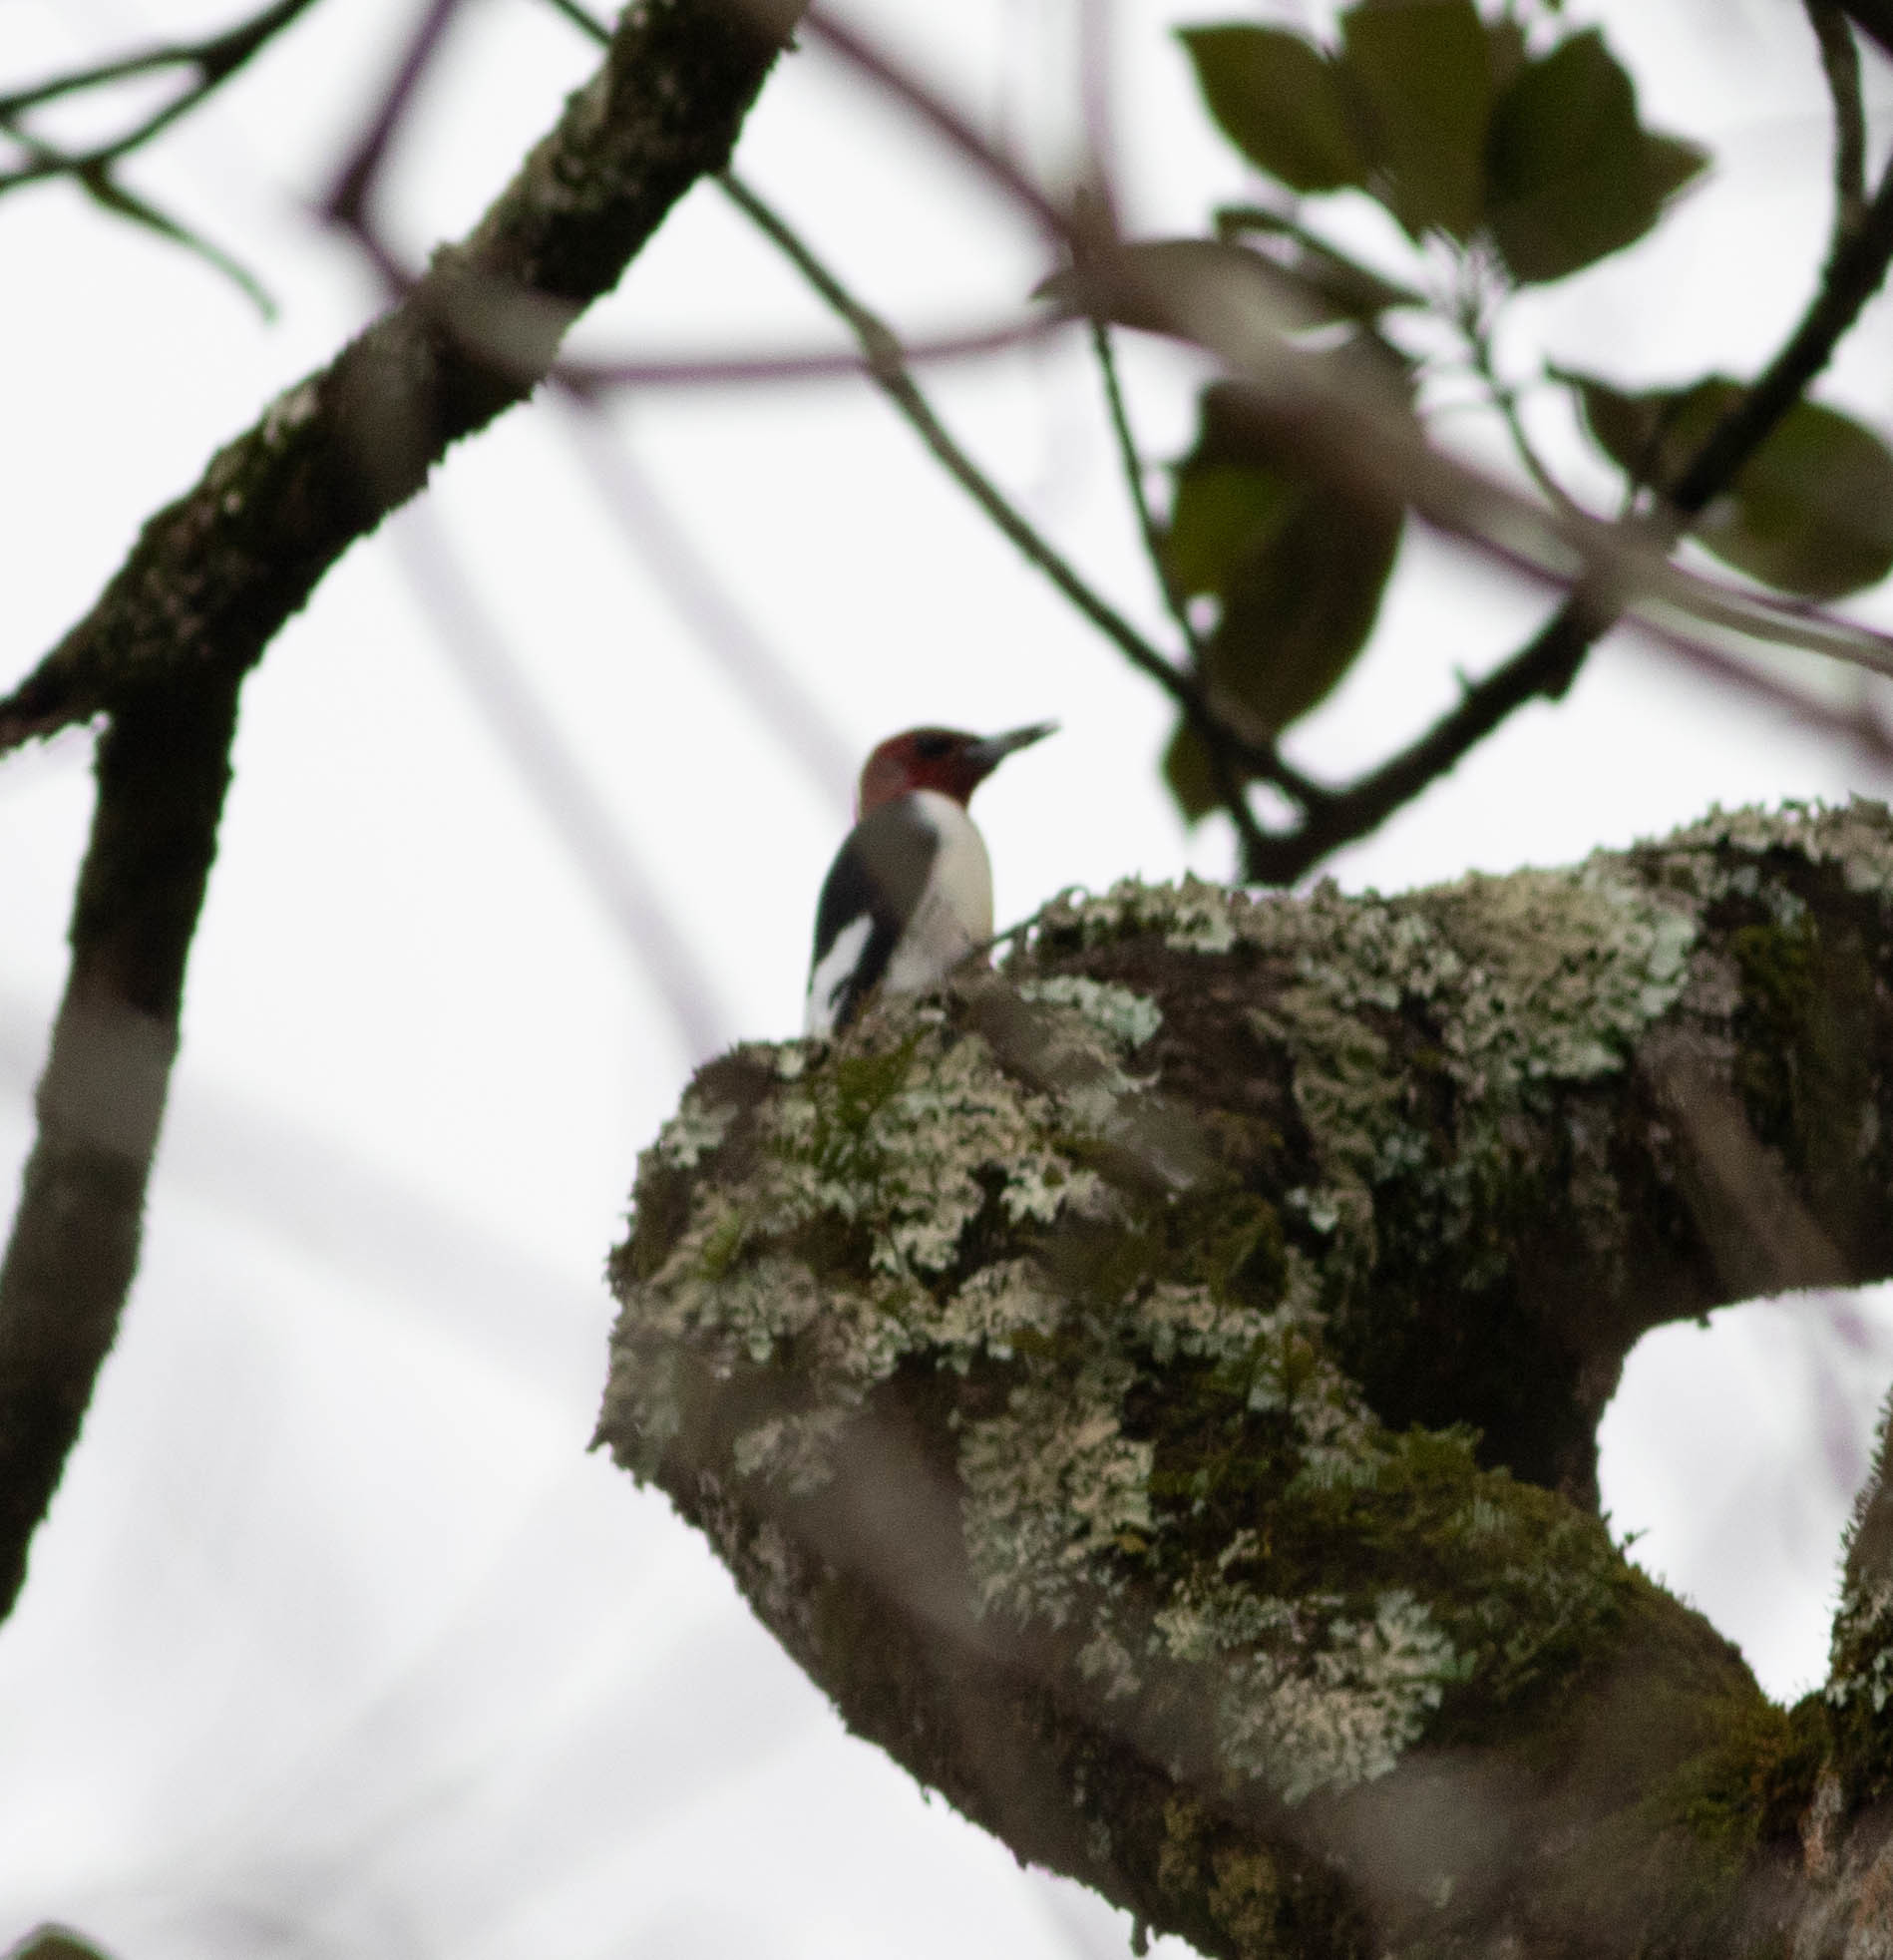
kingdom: Animalia
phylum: Chordata
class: Aves
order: Piciformes
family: Picidae
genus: Melanerpes
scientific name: Melanerpes erythrocephalus
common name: Red-headed woodpecker
